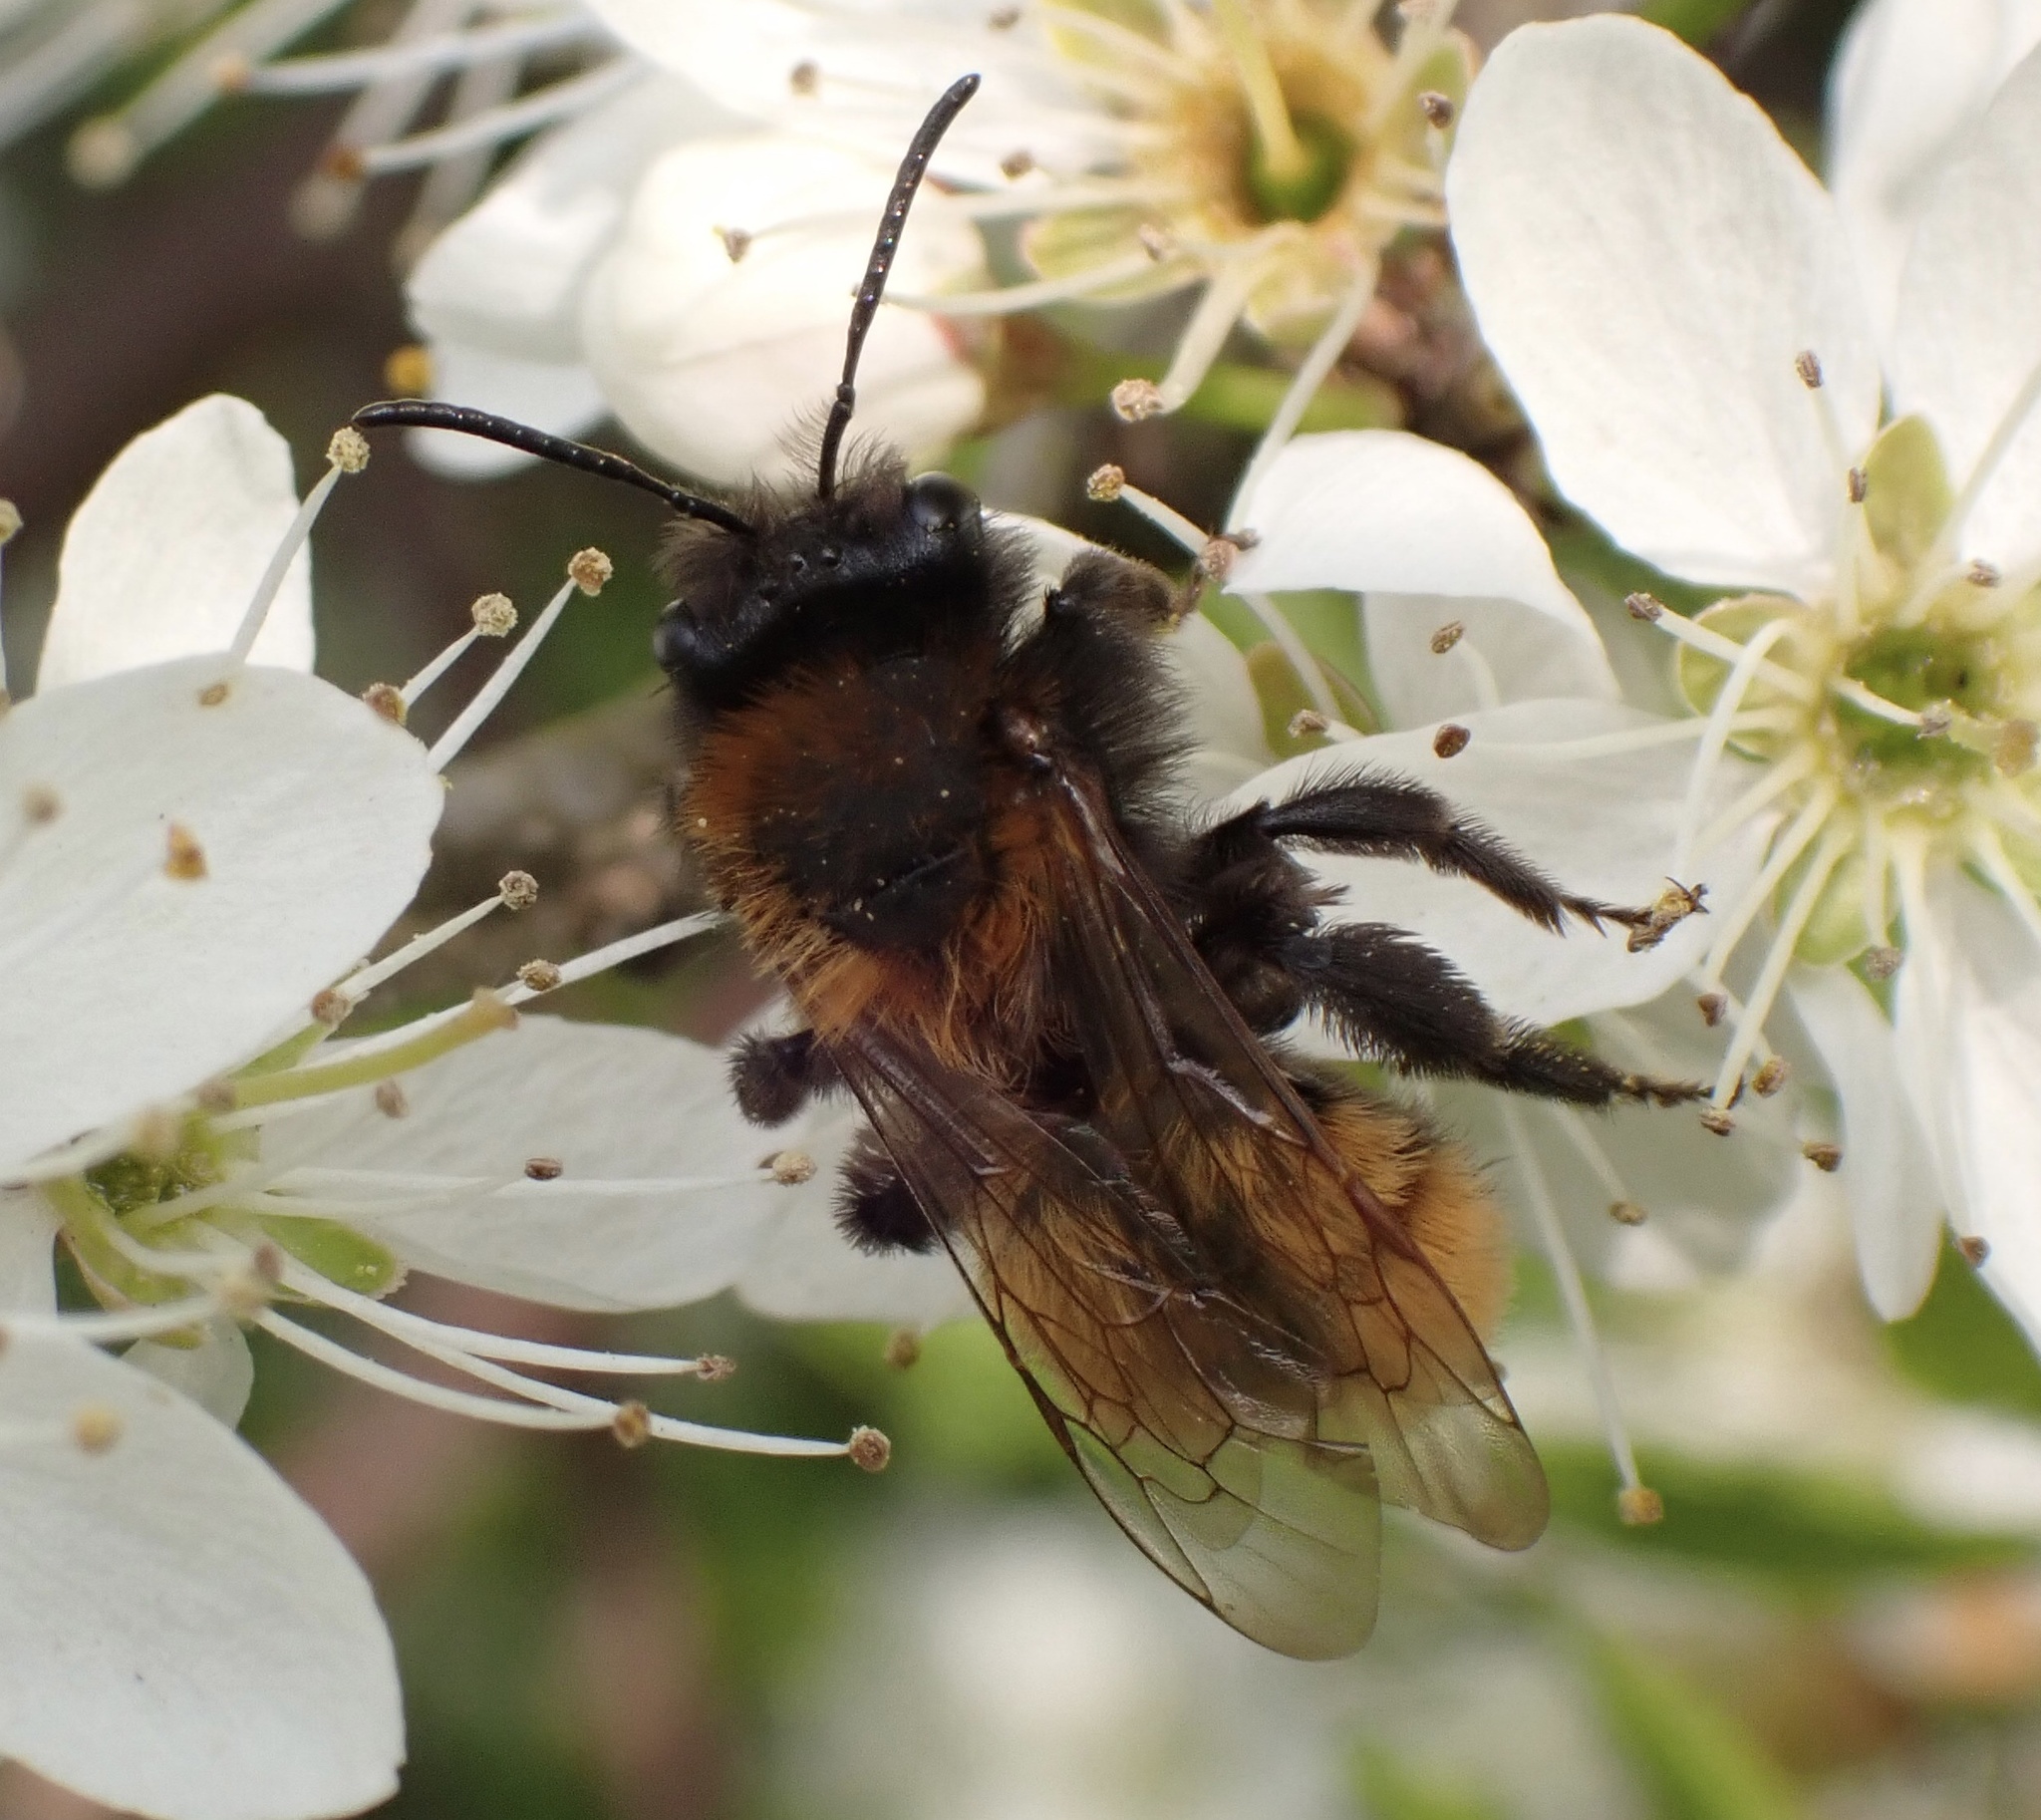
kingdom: Animalia
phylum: Arthropoda
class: Insecta
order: Hymenoptera
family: Andrenidae
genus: Andrena
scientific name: Andrena fulva
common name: Tawny mining bee
